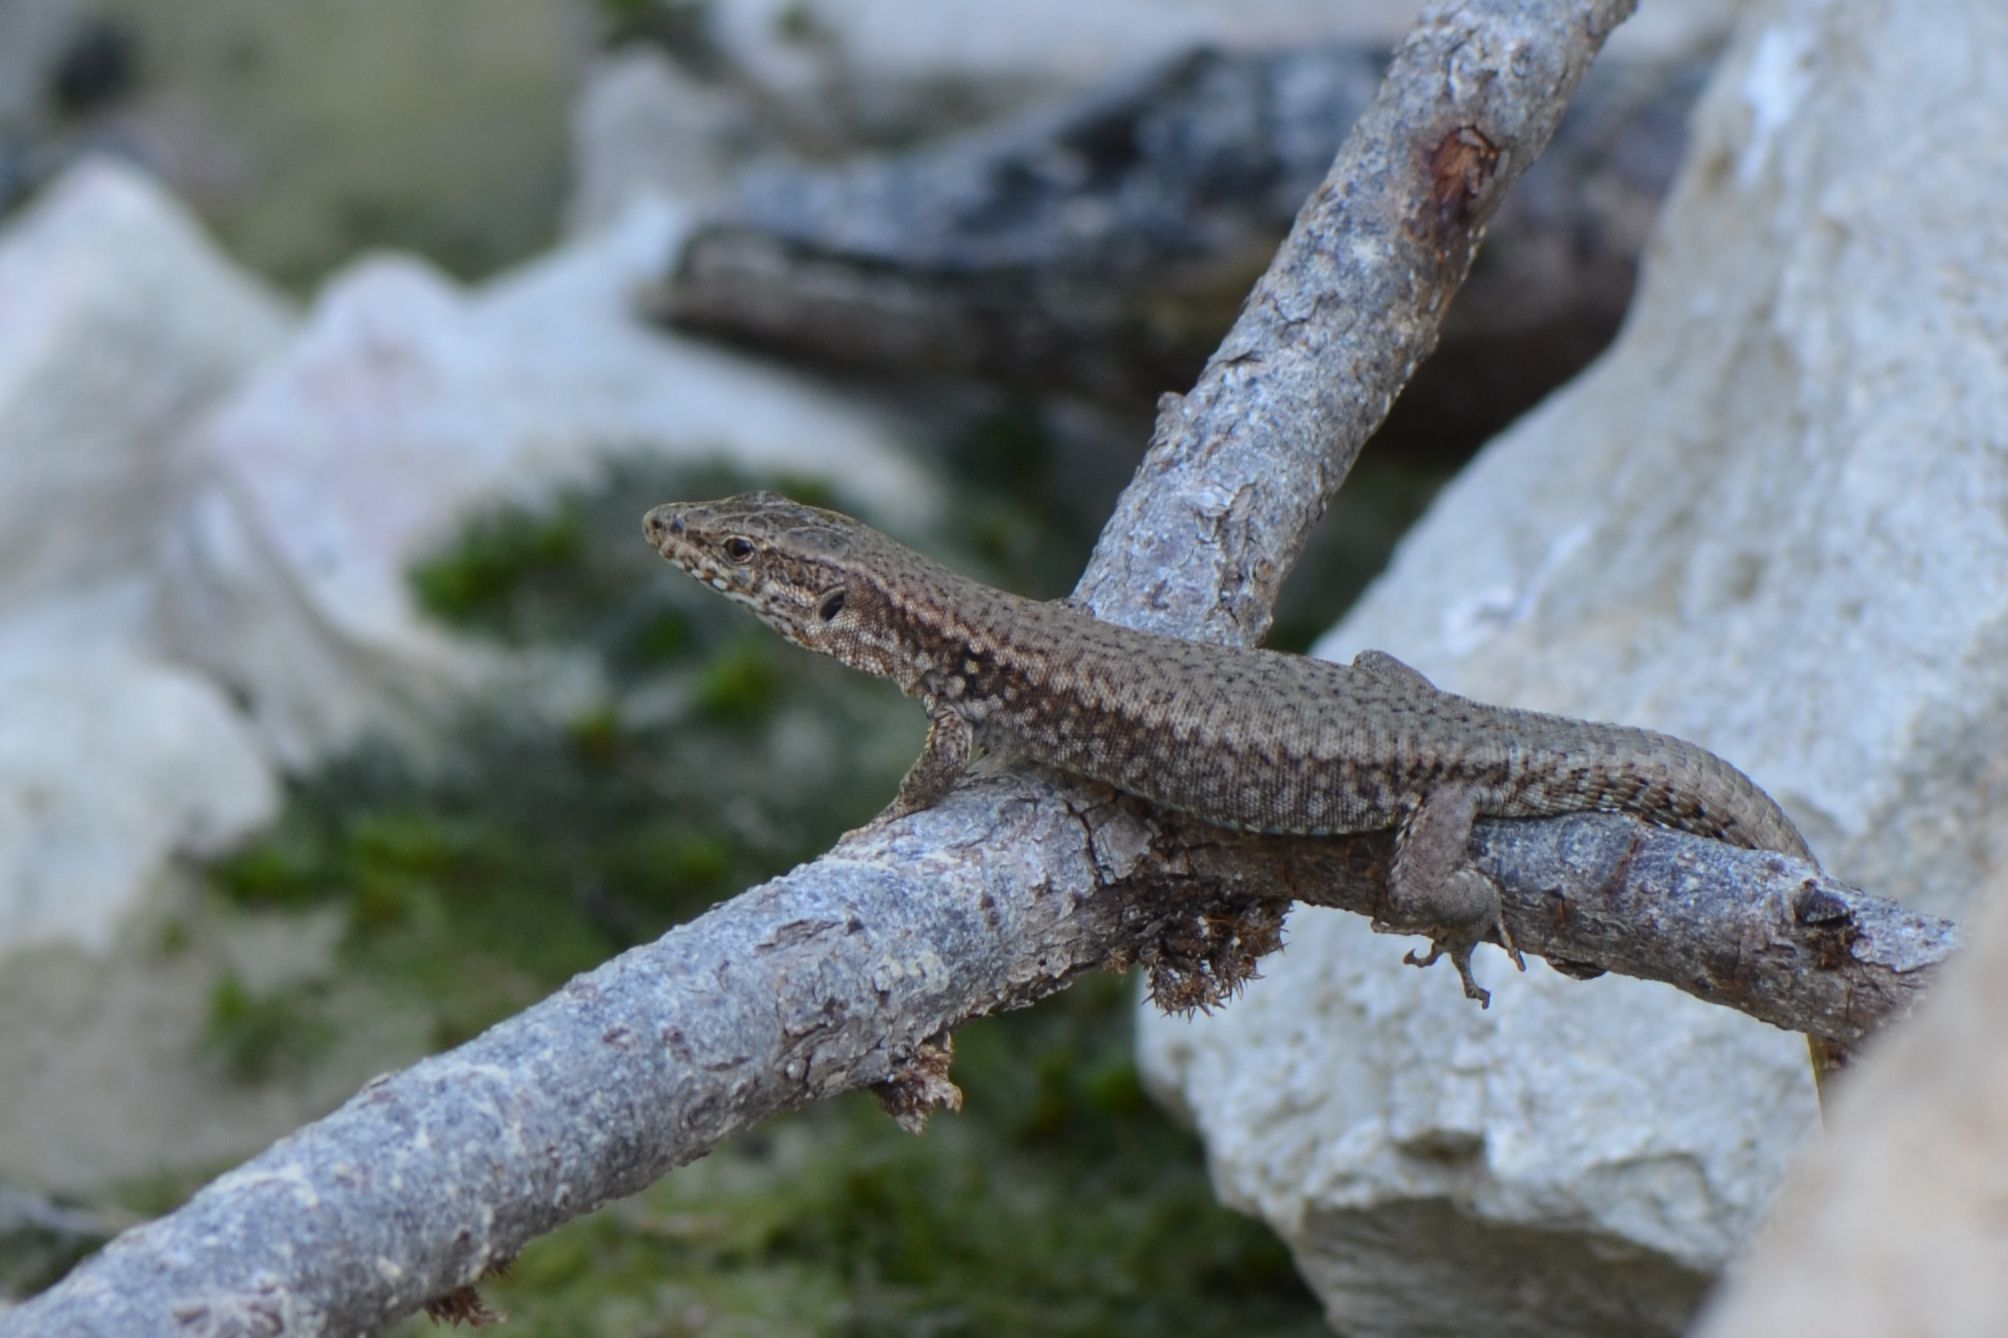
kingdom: Animalia
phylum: Chordata
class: Squamata
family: Lacertidae
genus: Podarcis
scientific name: Podarcis muralis
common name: Common wall lizard
